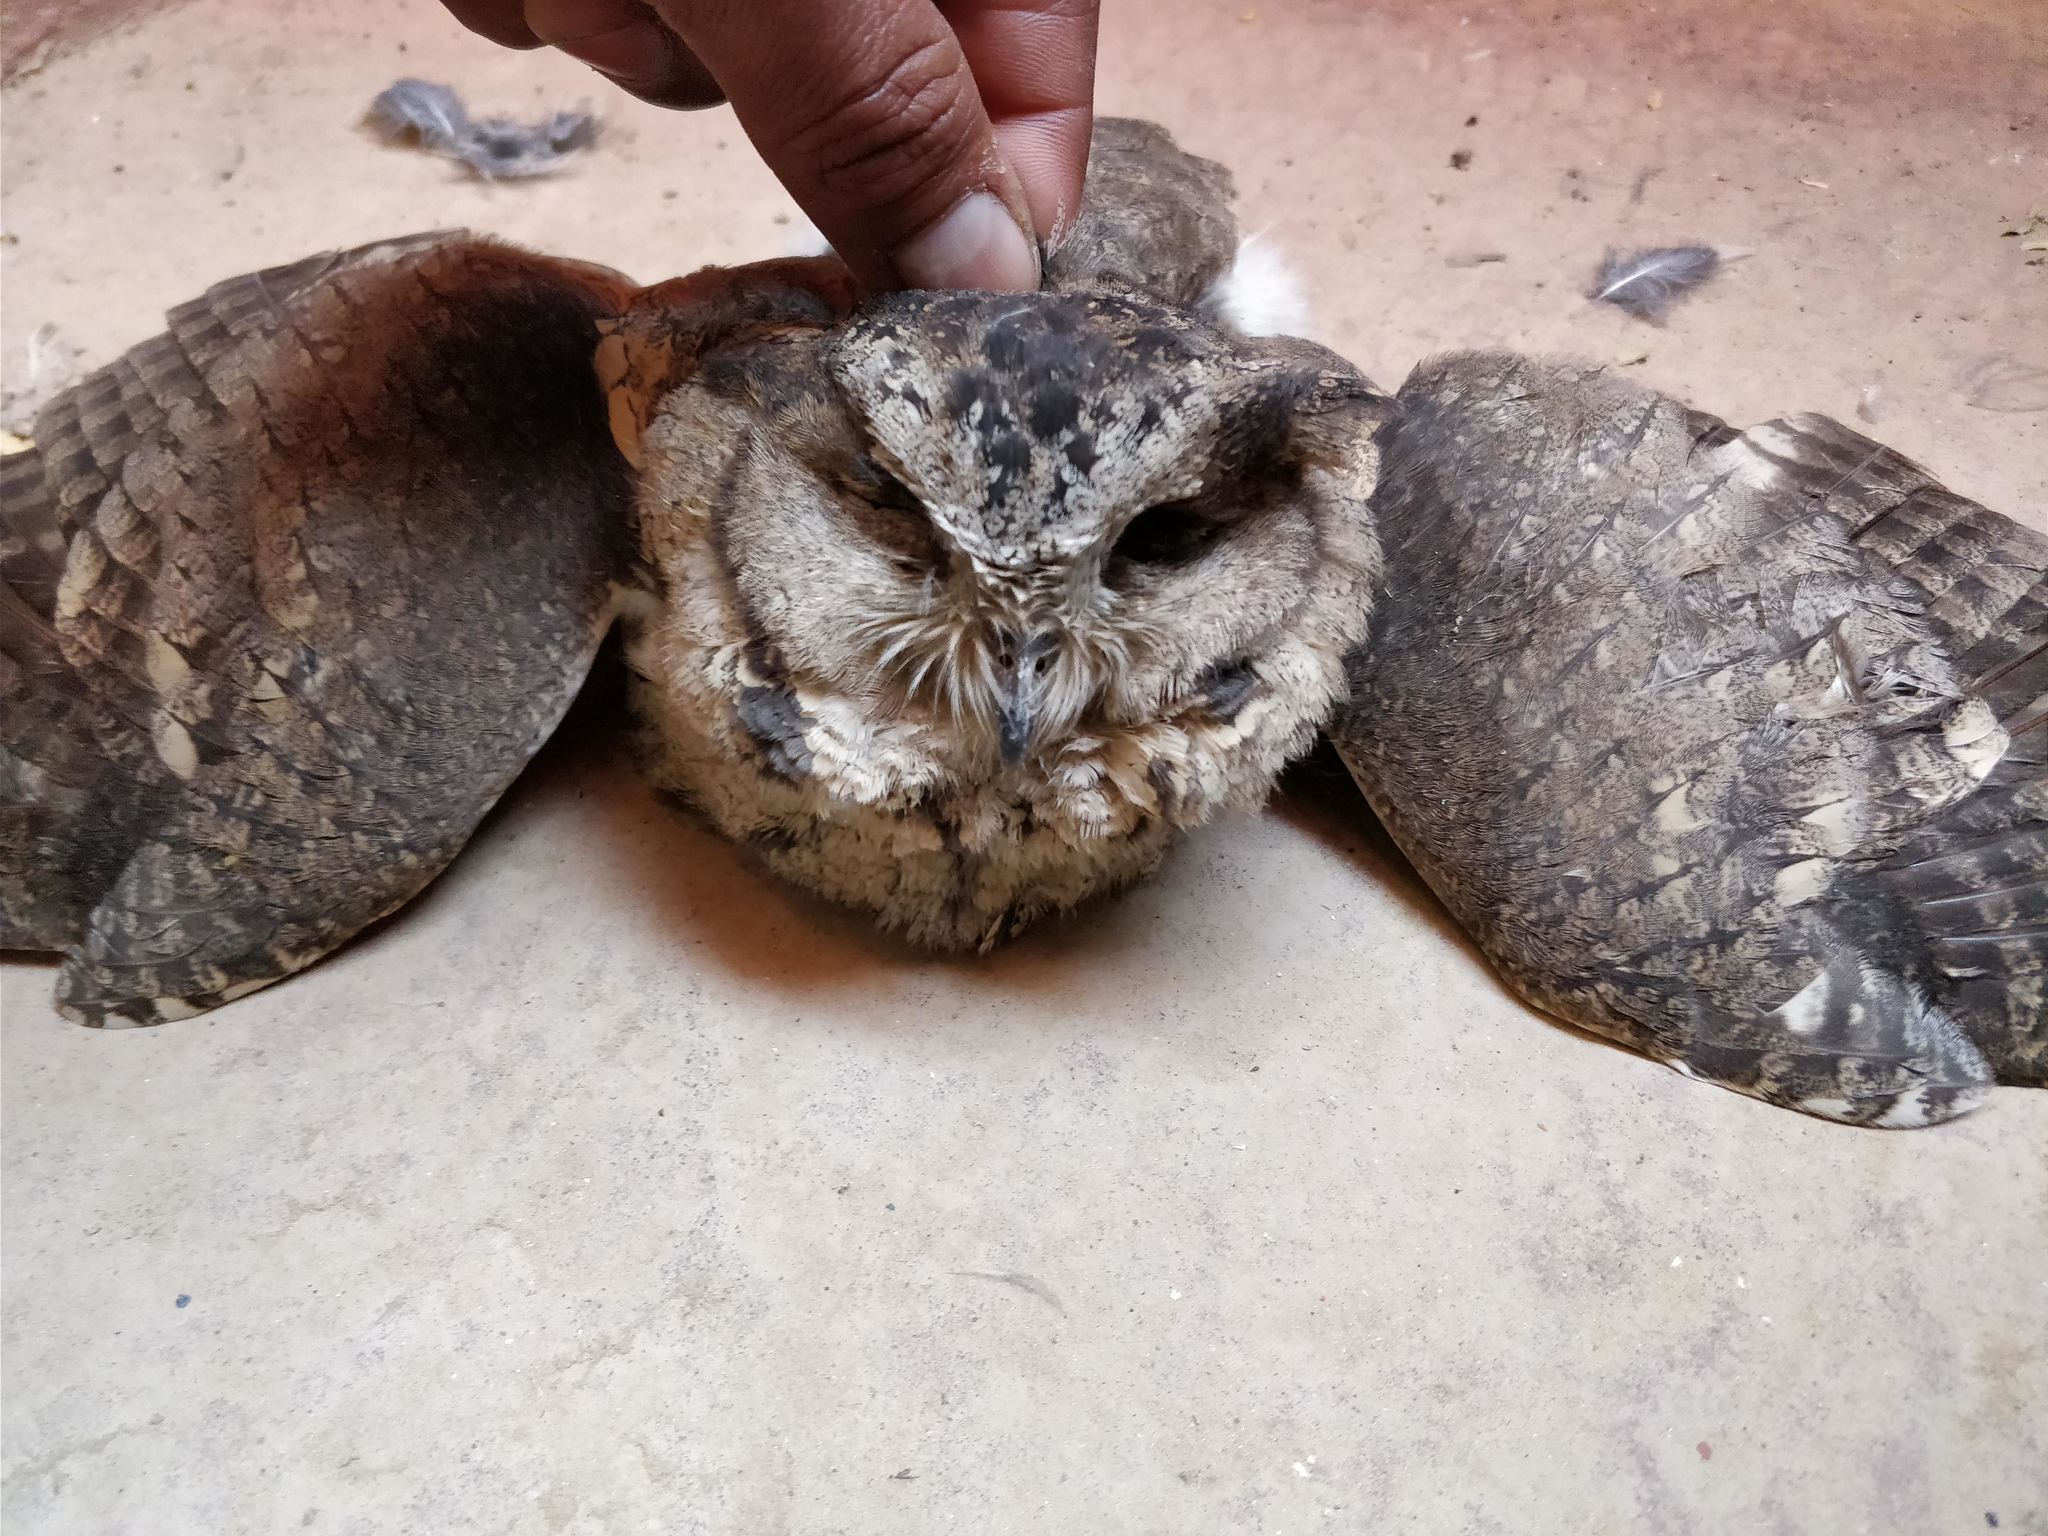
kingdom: Animalia
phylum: Chordata
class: Aves
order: Strigiformes
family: Strigidae
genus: Otus
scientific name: Otus bakkamoena
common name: Indian scops owl
